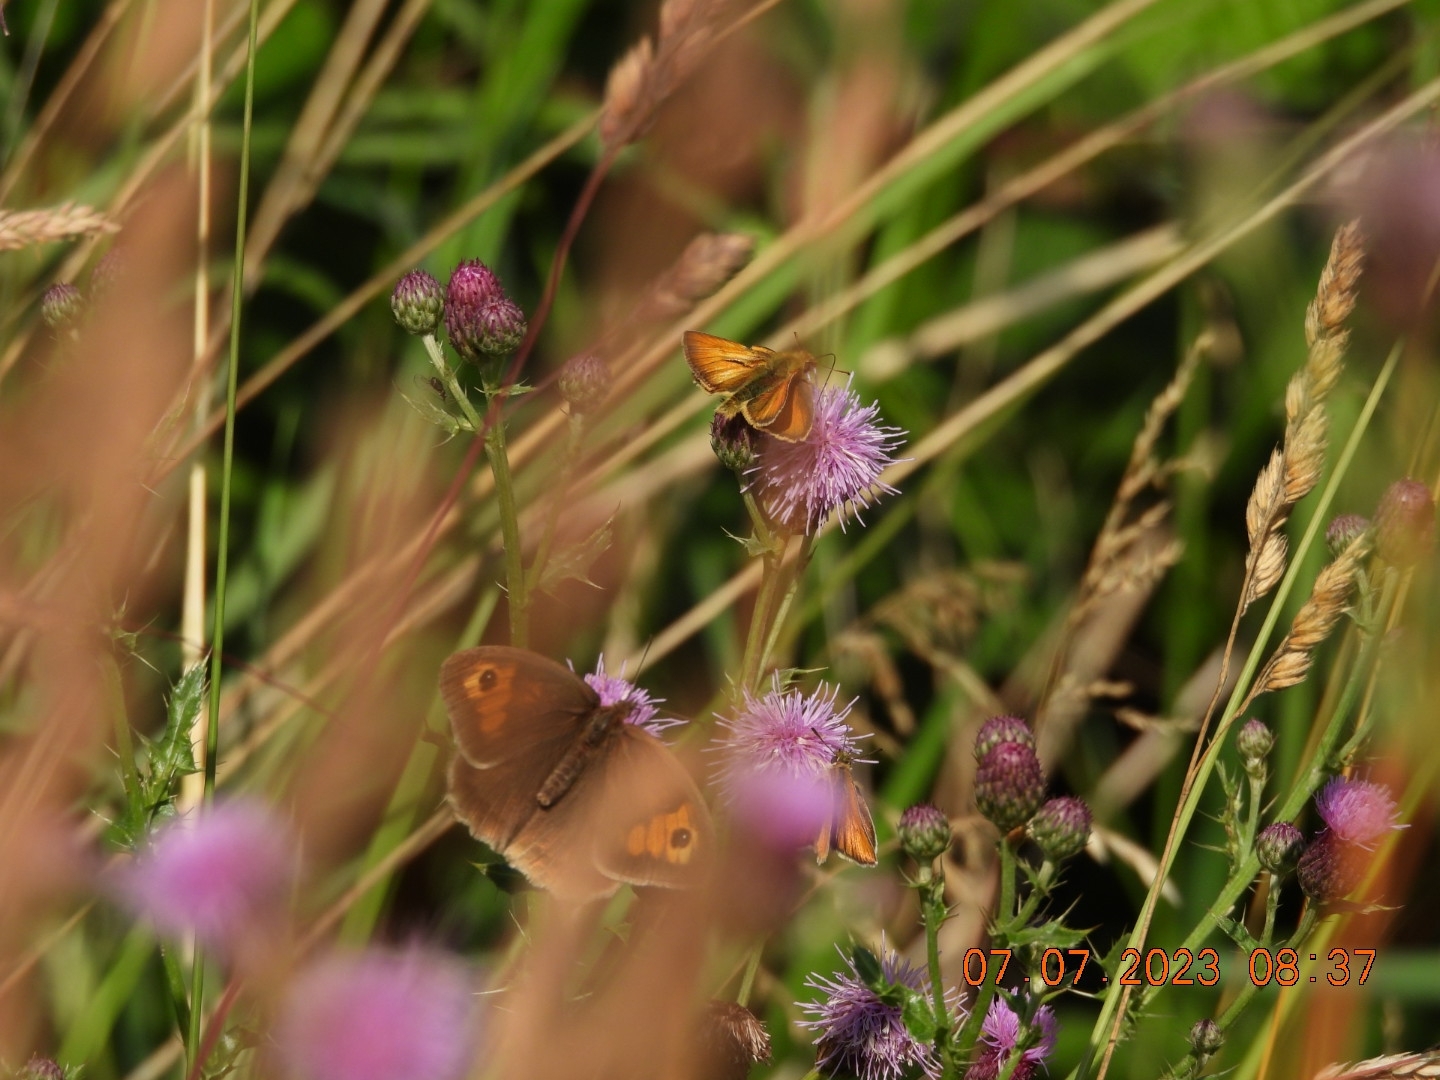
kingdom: Animalia
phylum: Arthropoda
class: Insecta
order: Lepidoptera
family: Nymphalidae
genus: Maniola
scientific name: Maniola jurtina
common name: Meadow brown
